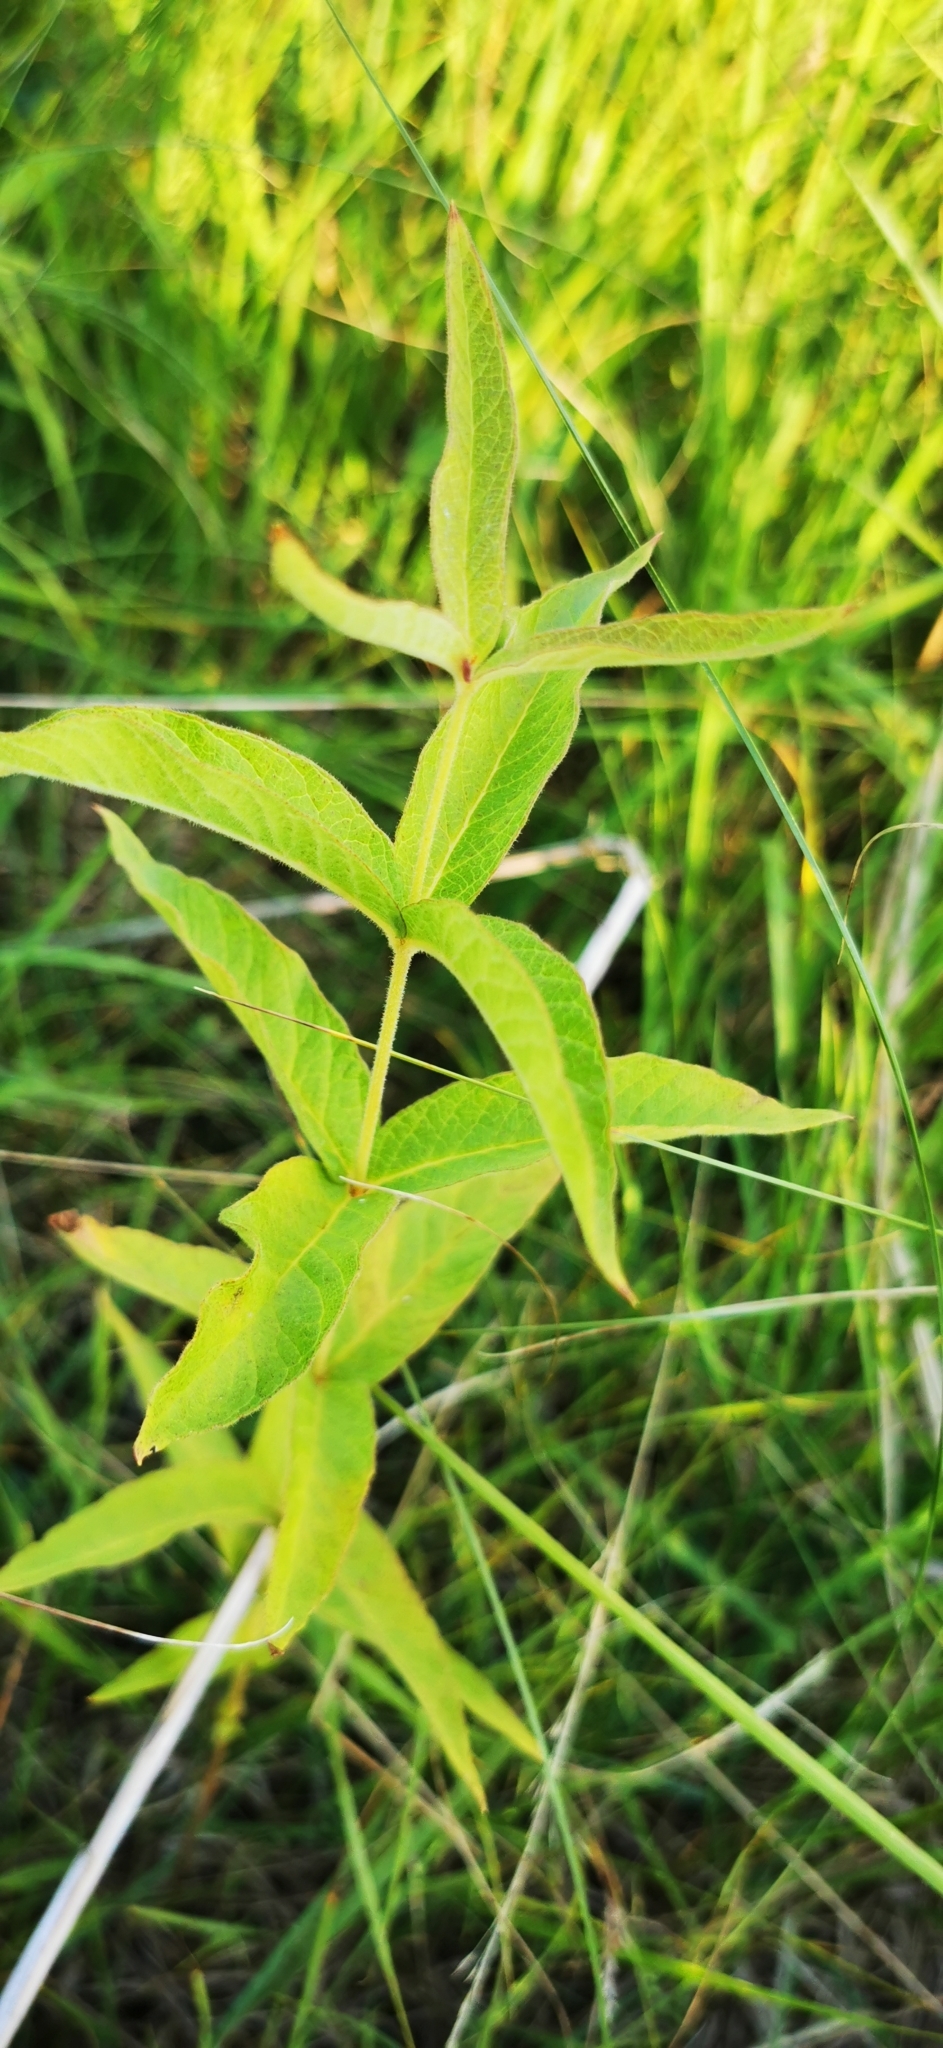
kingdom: Plantae
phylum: Tracheophyta
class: Magnoliopsida
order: Ericales
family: Primulaceae
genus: Lysimachia
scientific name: Lysimachia vulgaris
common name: Yellow loosestrife
